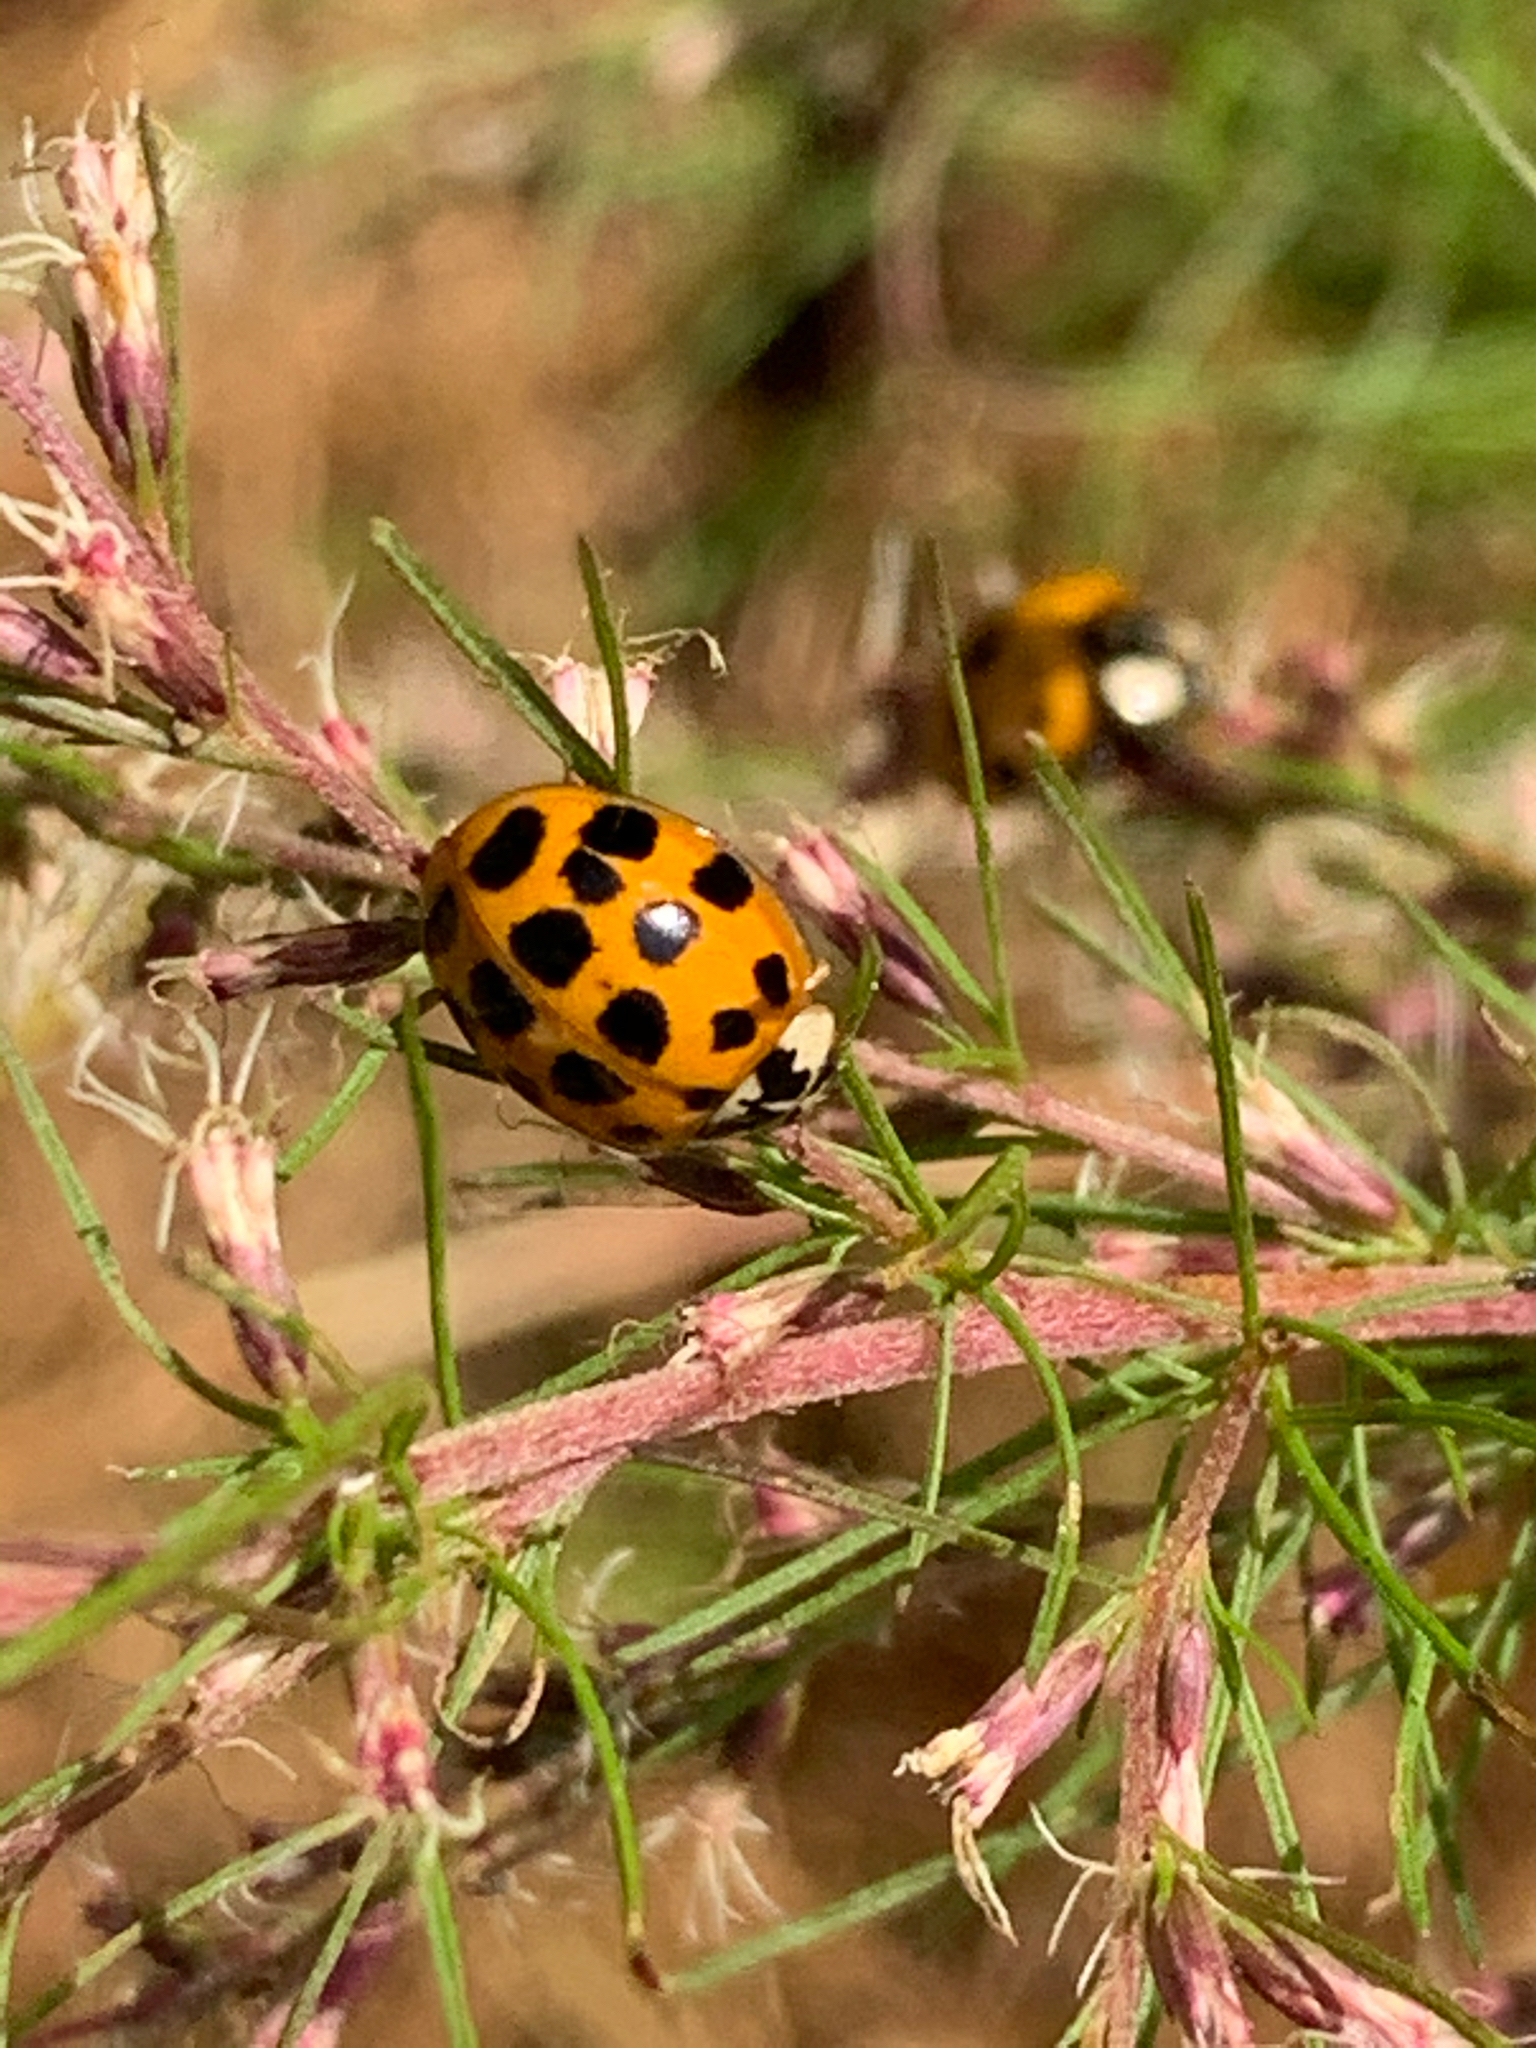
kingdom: Animalia
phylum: Arthropoda
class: Insecta
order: Coleoptera
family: Coccinellidae
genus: Harmonia
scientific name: Harmonia axyridis
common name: Harlequin ladybird
